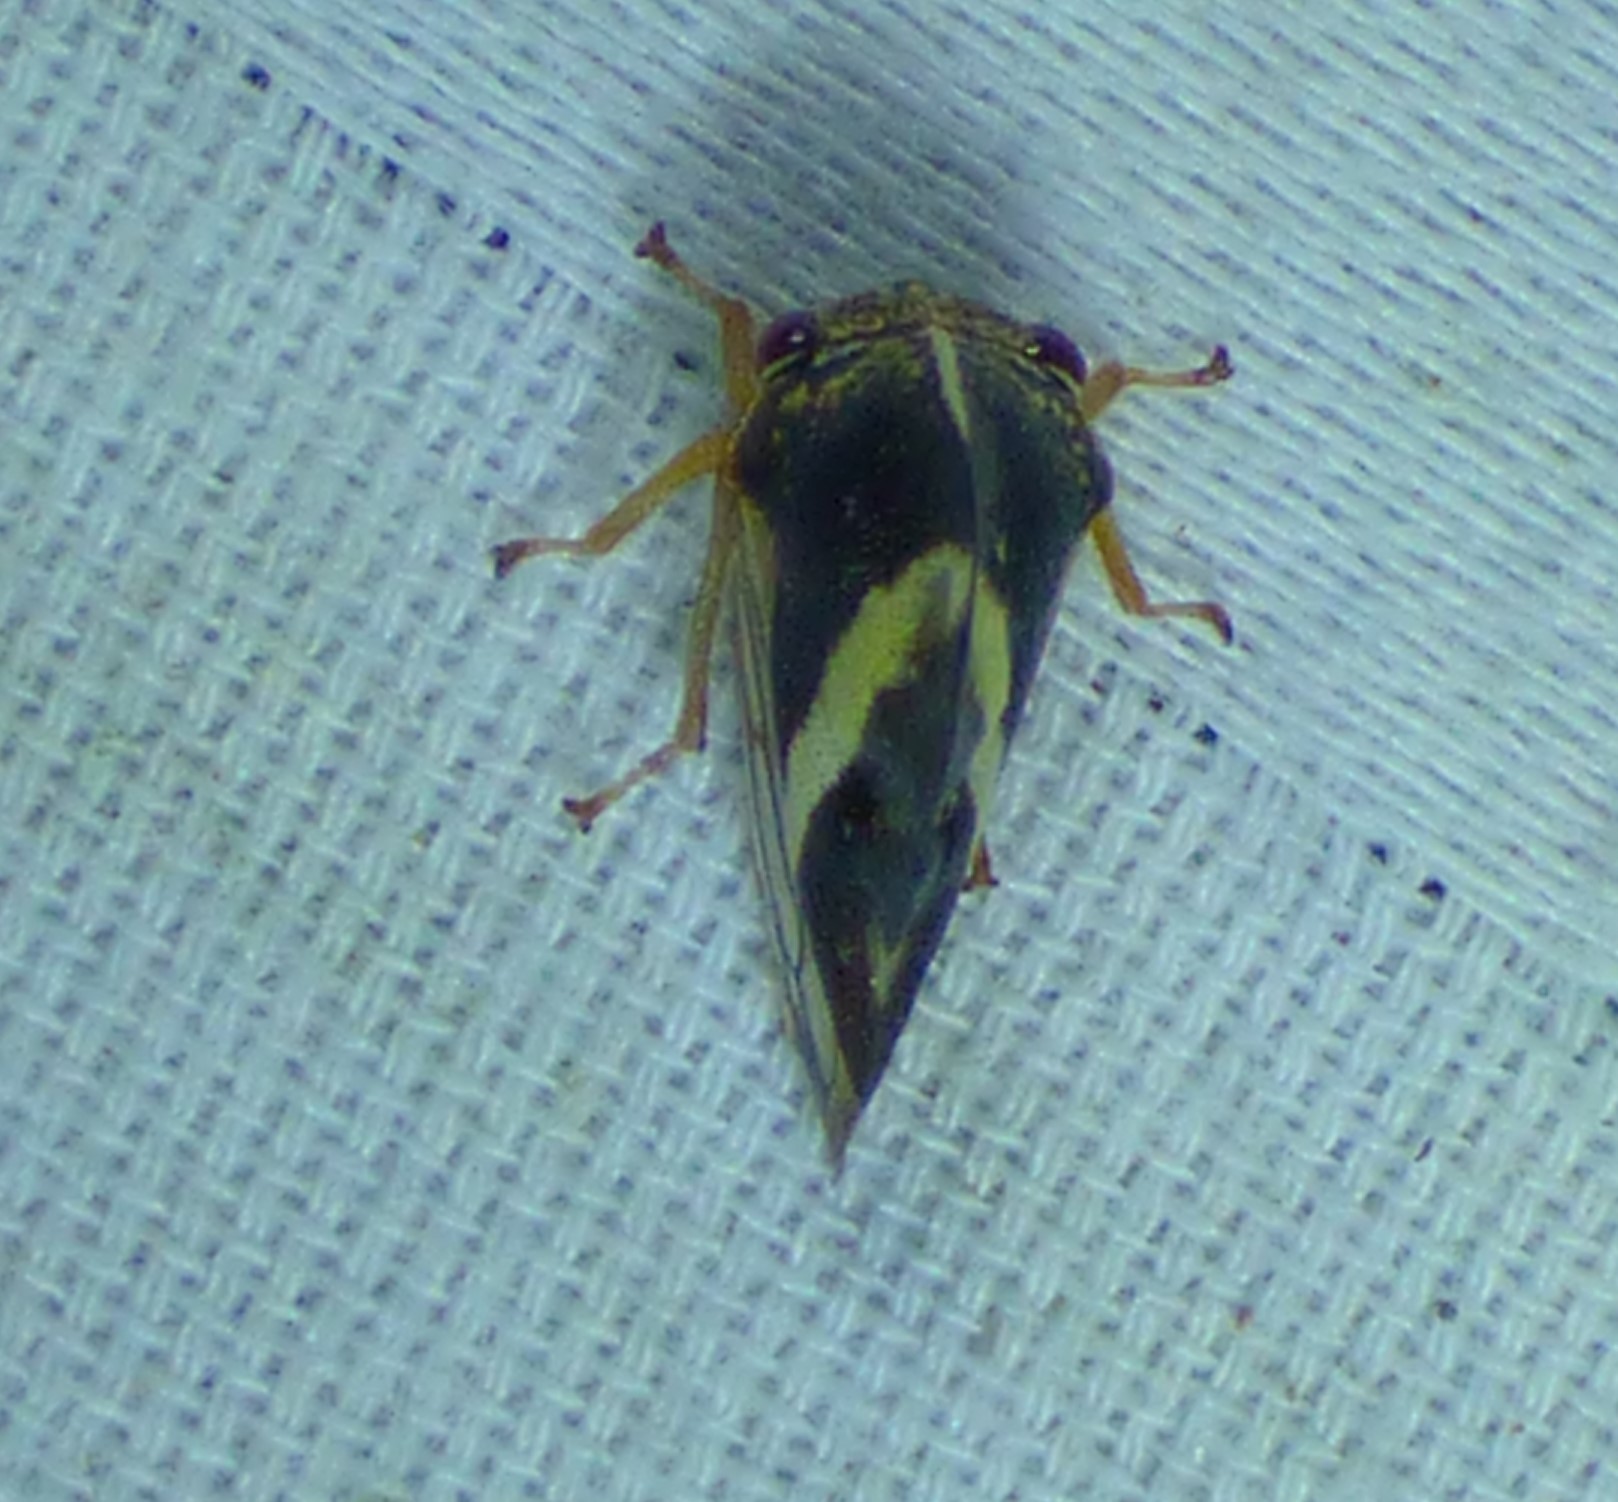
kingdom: Animalia
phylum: Arthropoda
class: Insecta
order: Hemiptera
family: Membracidae
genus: Smilia
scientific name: Smilia camelus
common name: Camel treehopper
